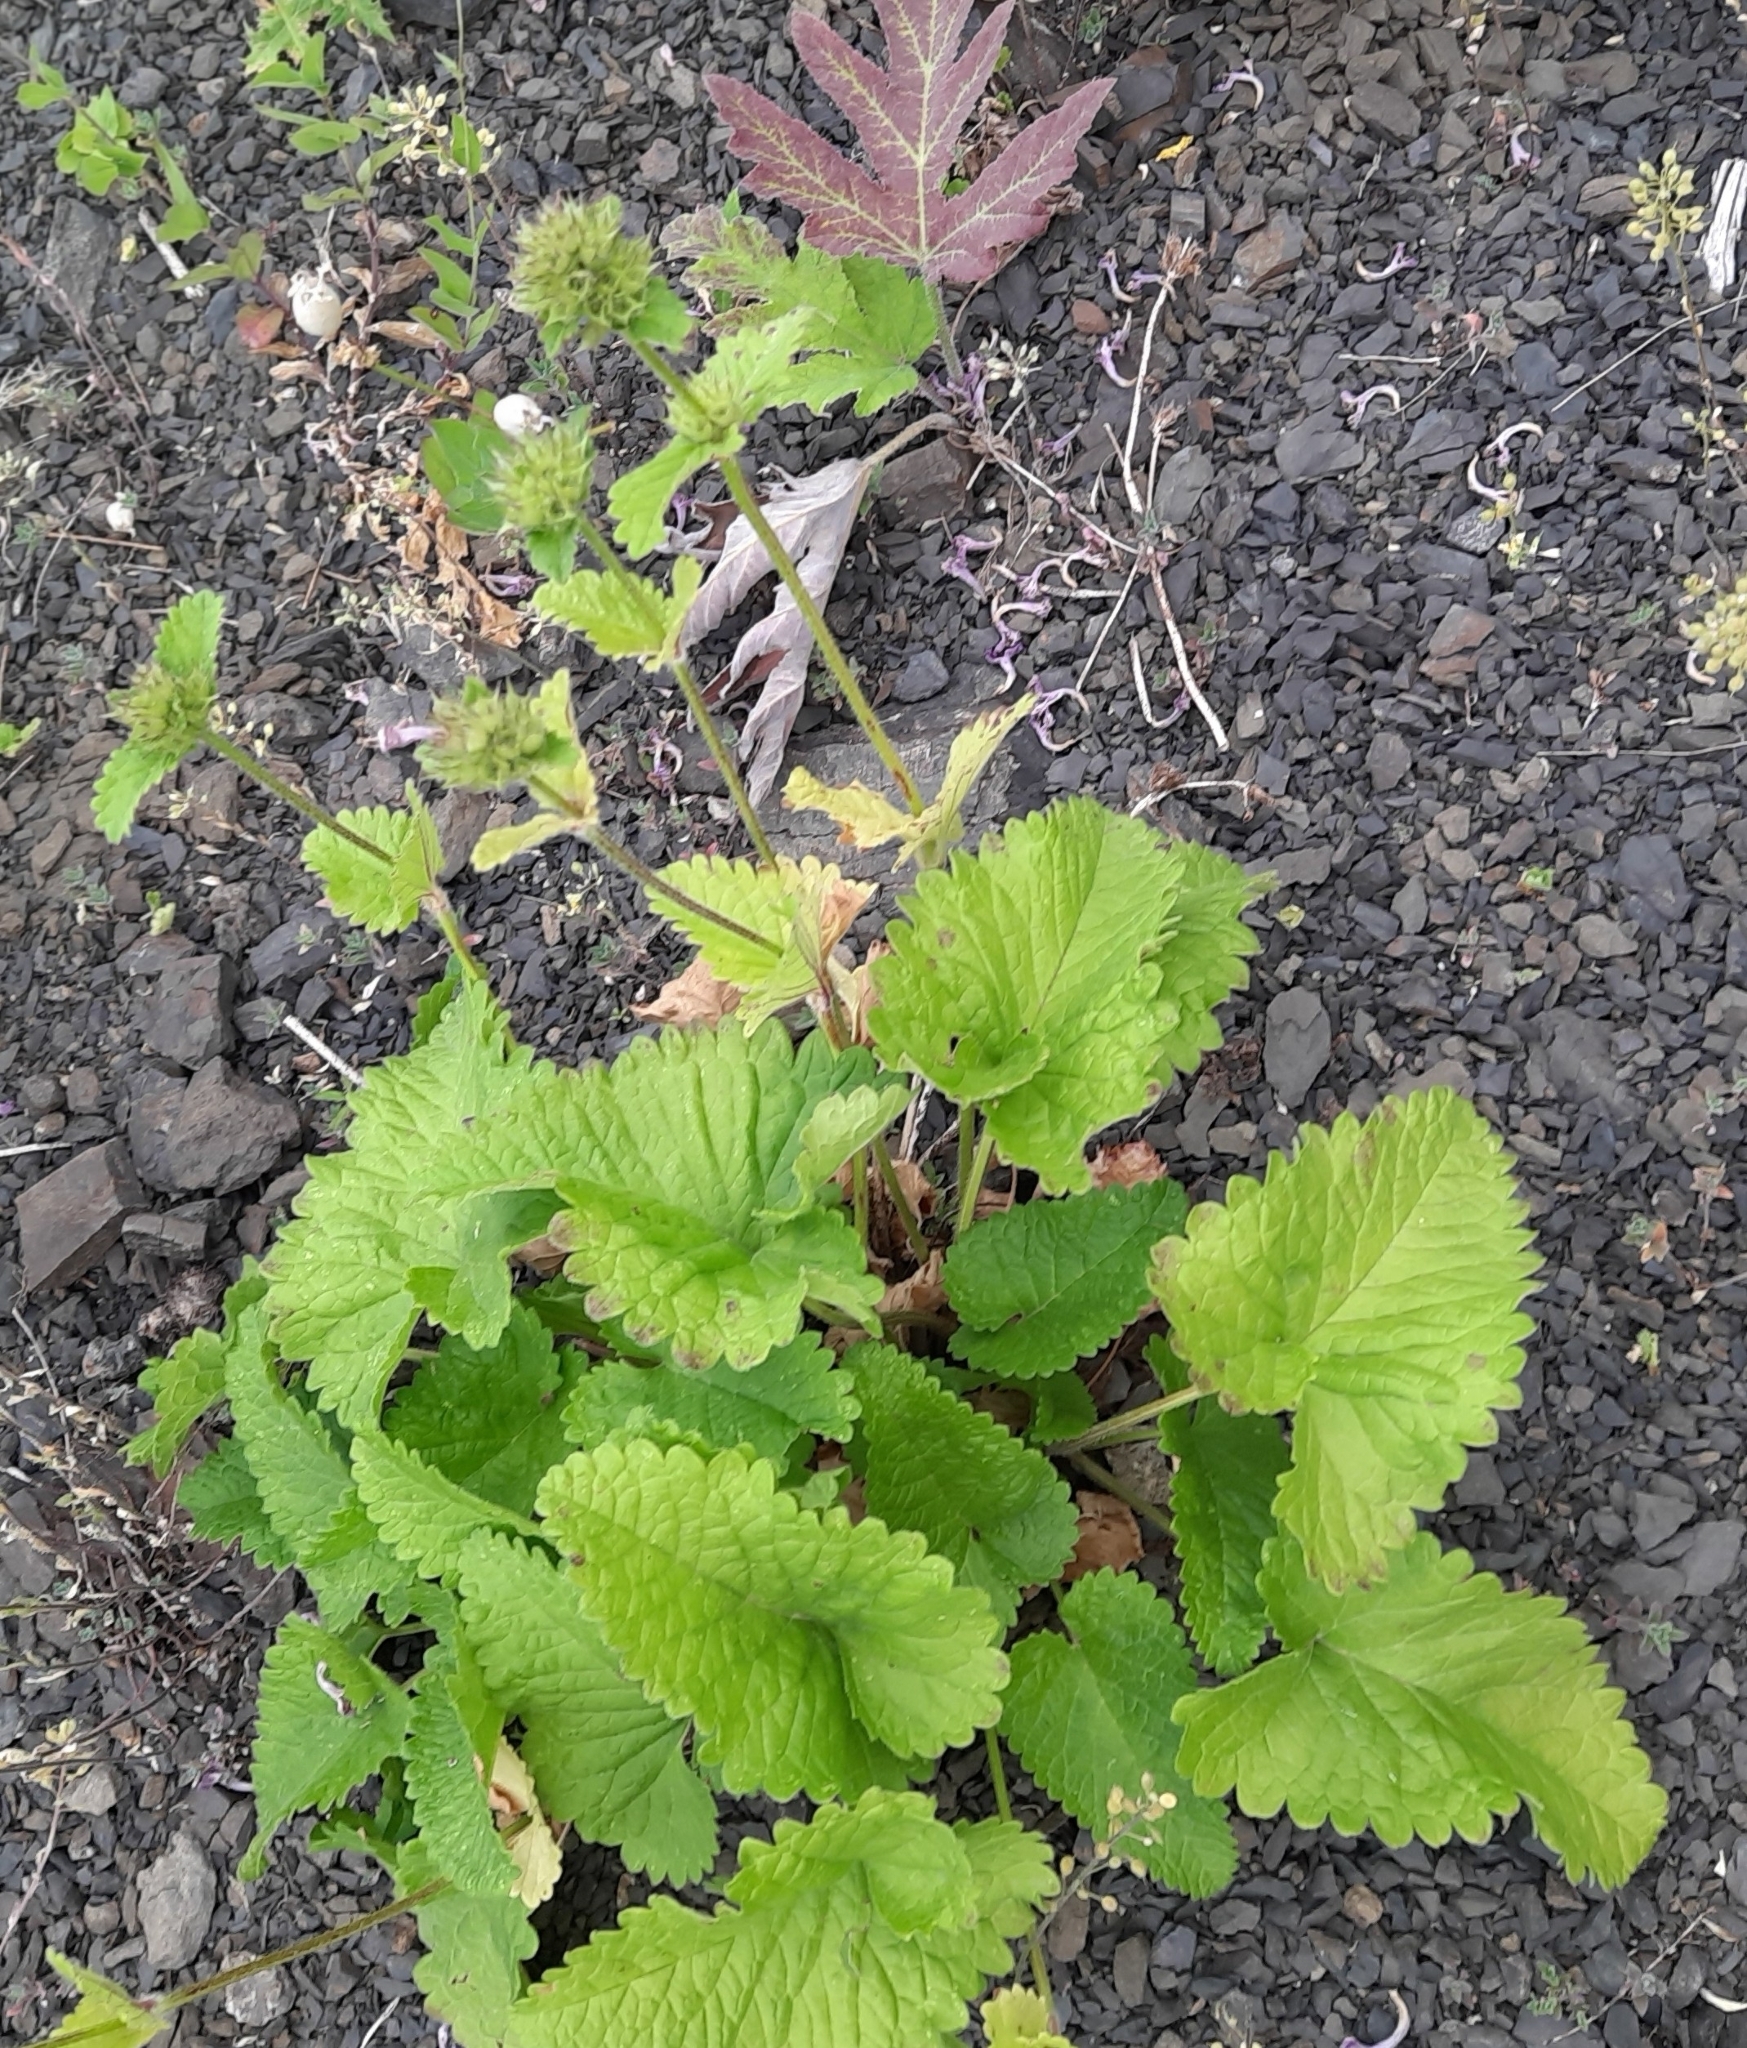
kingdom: Plantae
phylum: Tracheophyta
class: Magnoliopsida
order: Lamiales
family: Lamiaceae
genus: Betonica
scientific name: Betonica macrantha
